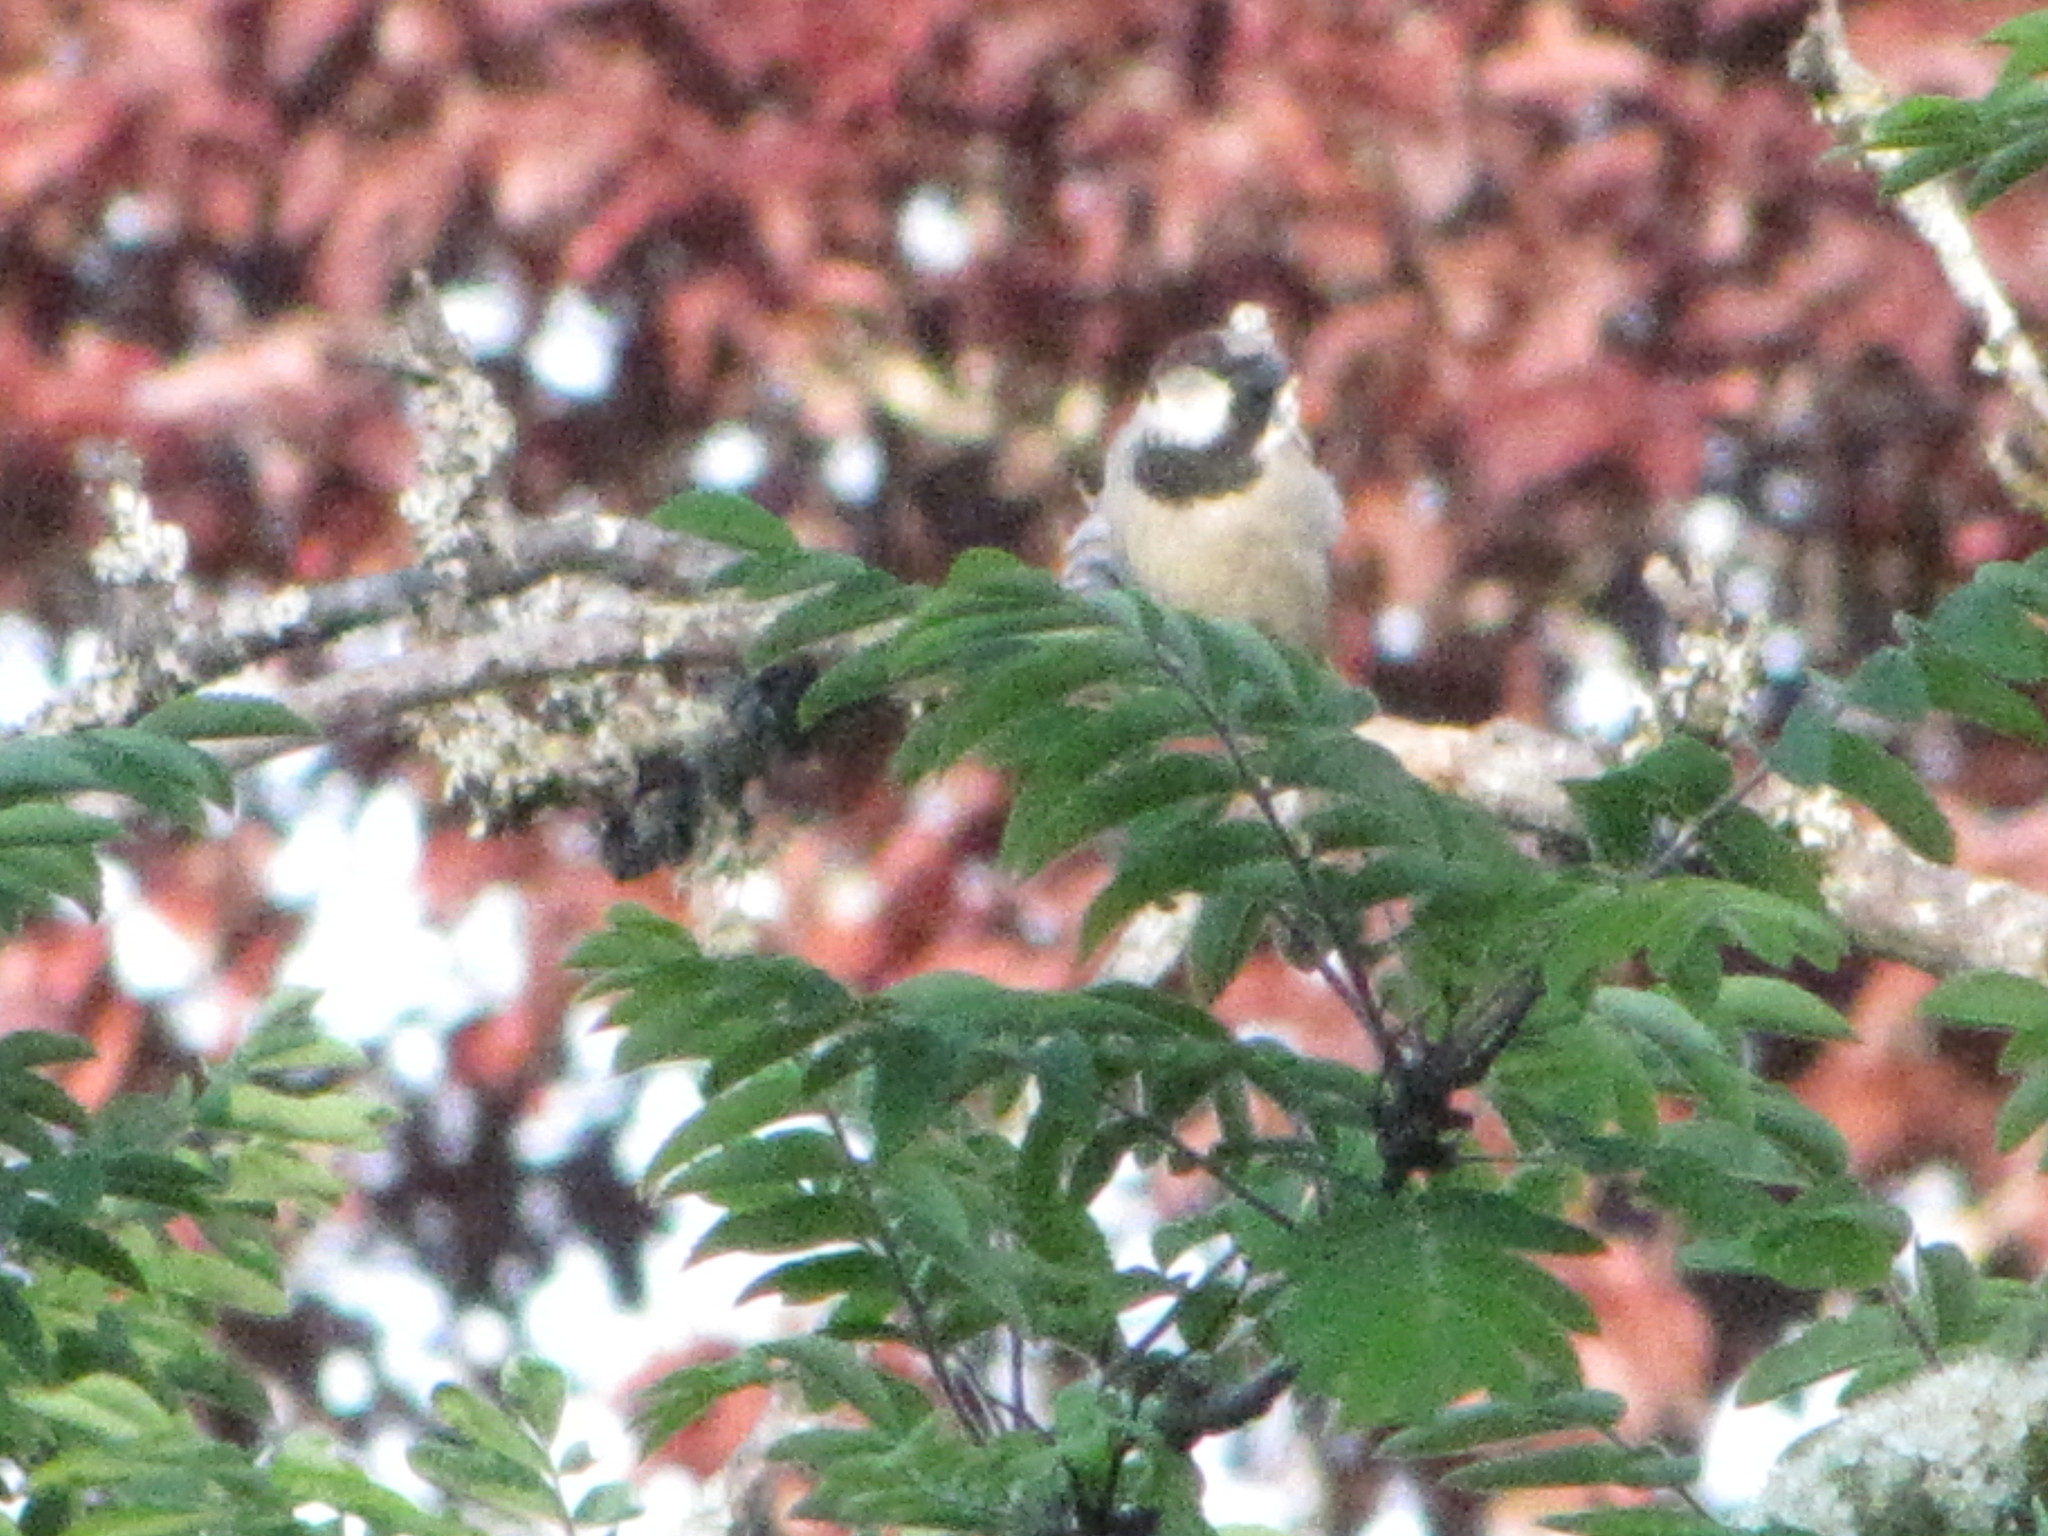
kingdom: Animalia
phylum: Chordata
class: Aves
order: Passeriformes
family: Passeridae
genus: Passer
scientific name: Passer domesticus
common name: House sparrow
